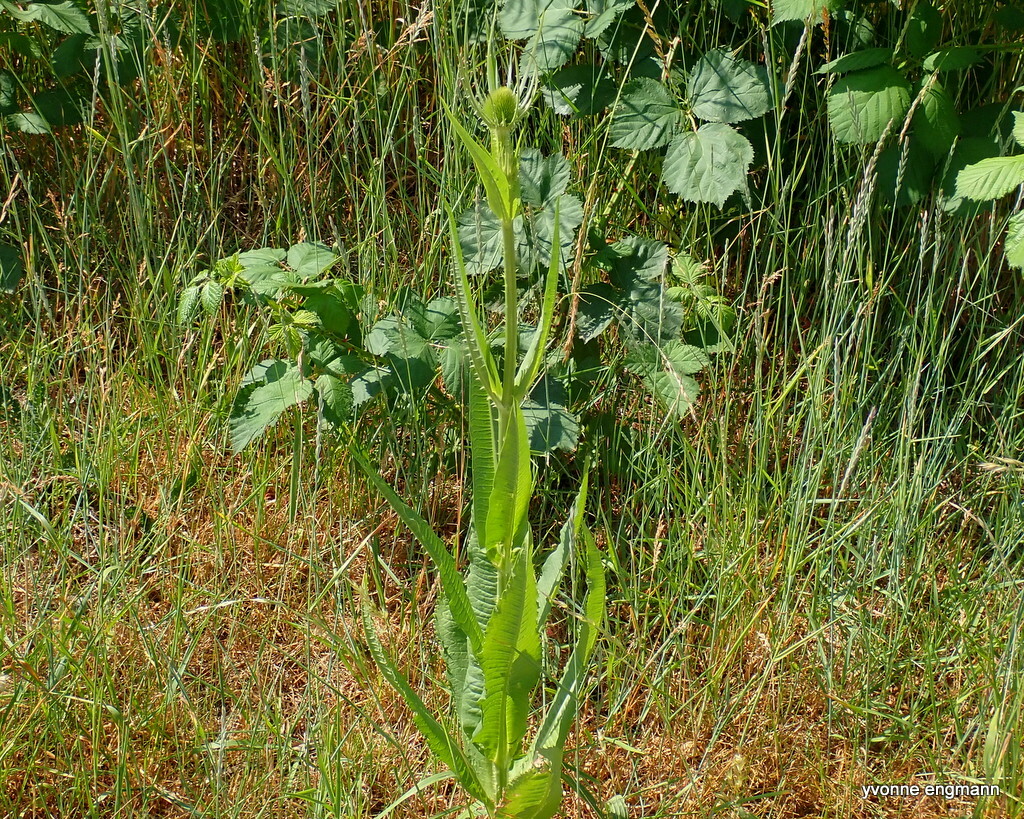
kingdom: Plantae
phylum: Tracheophyta
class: Magnoliopsida
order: Dipsacales
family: Caprifoliaceae
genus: Dipsacus
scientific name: Dipsacus fullonum
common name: Teasel
